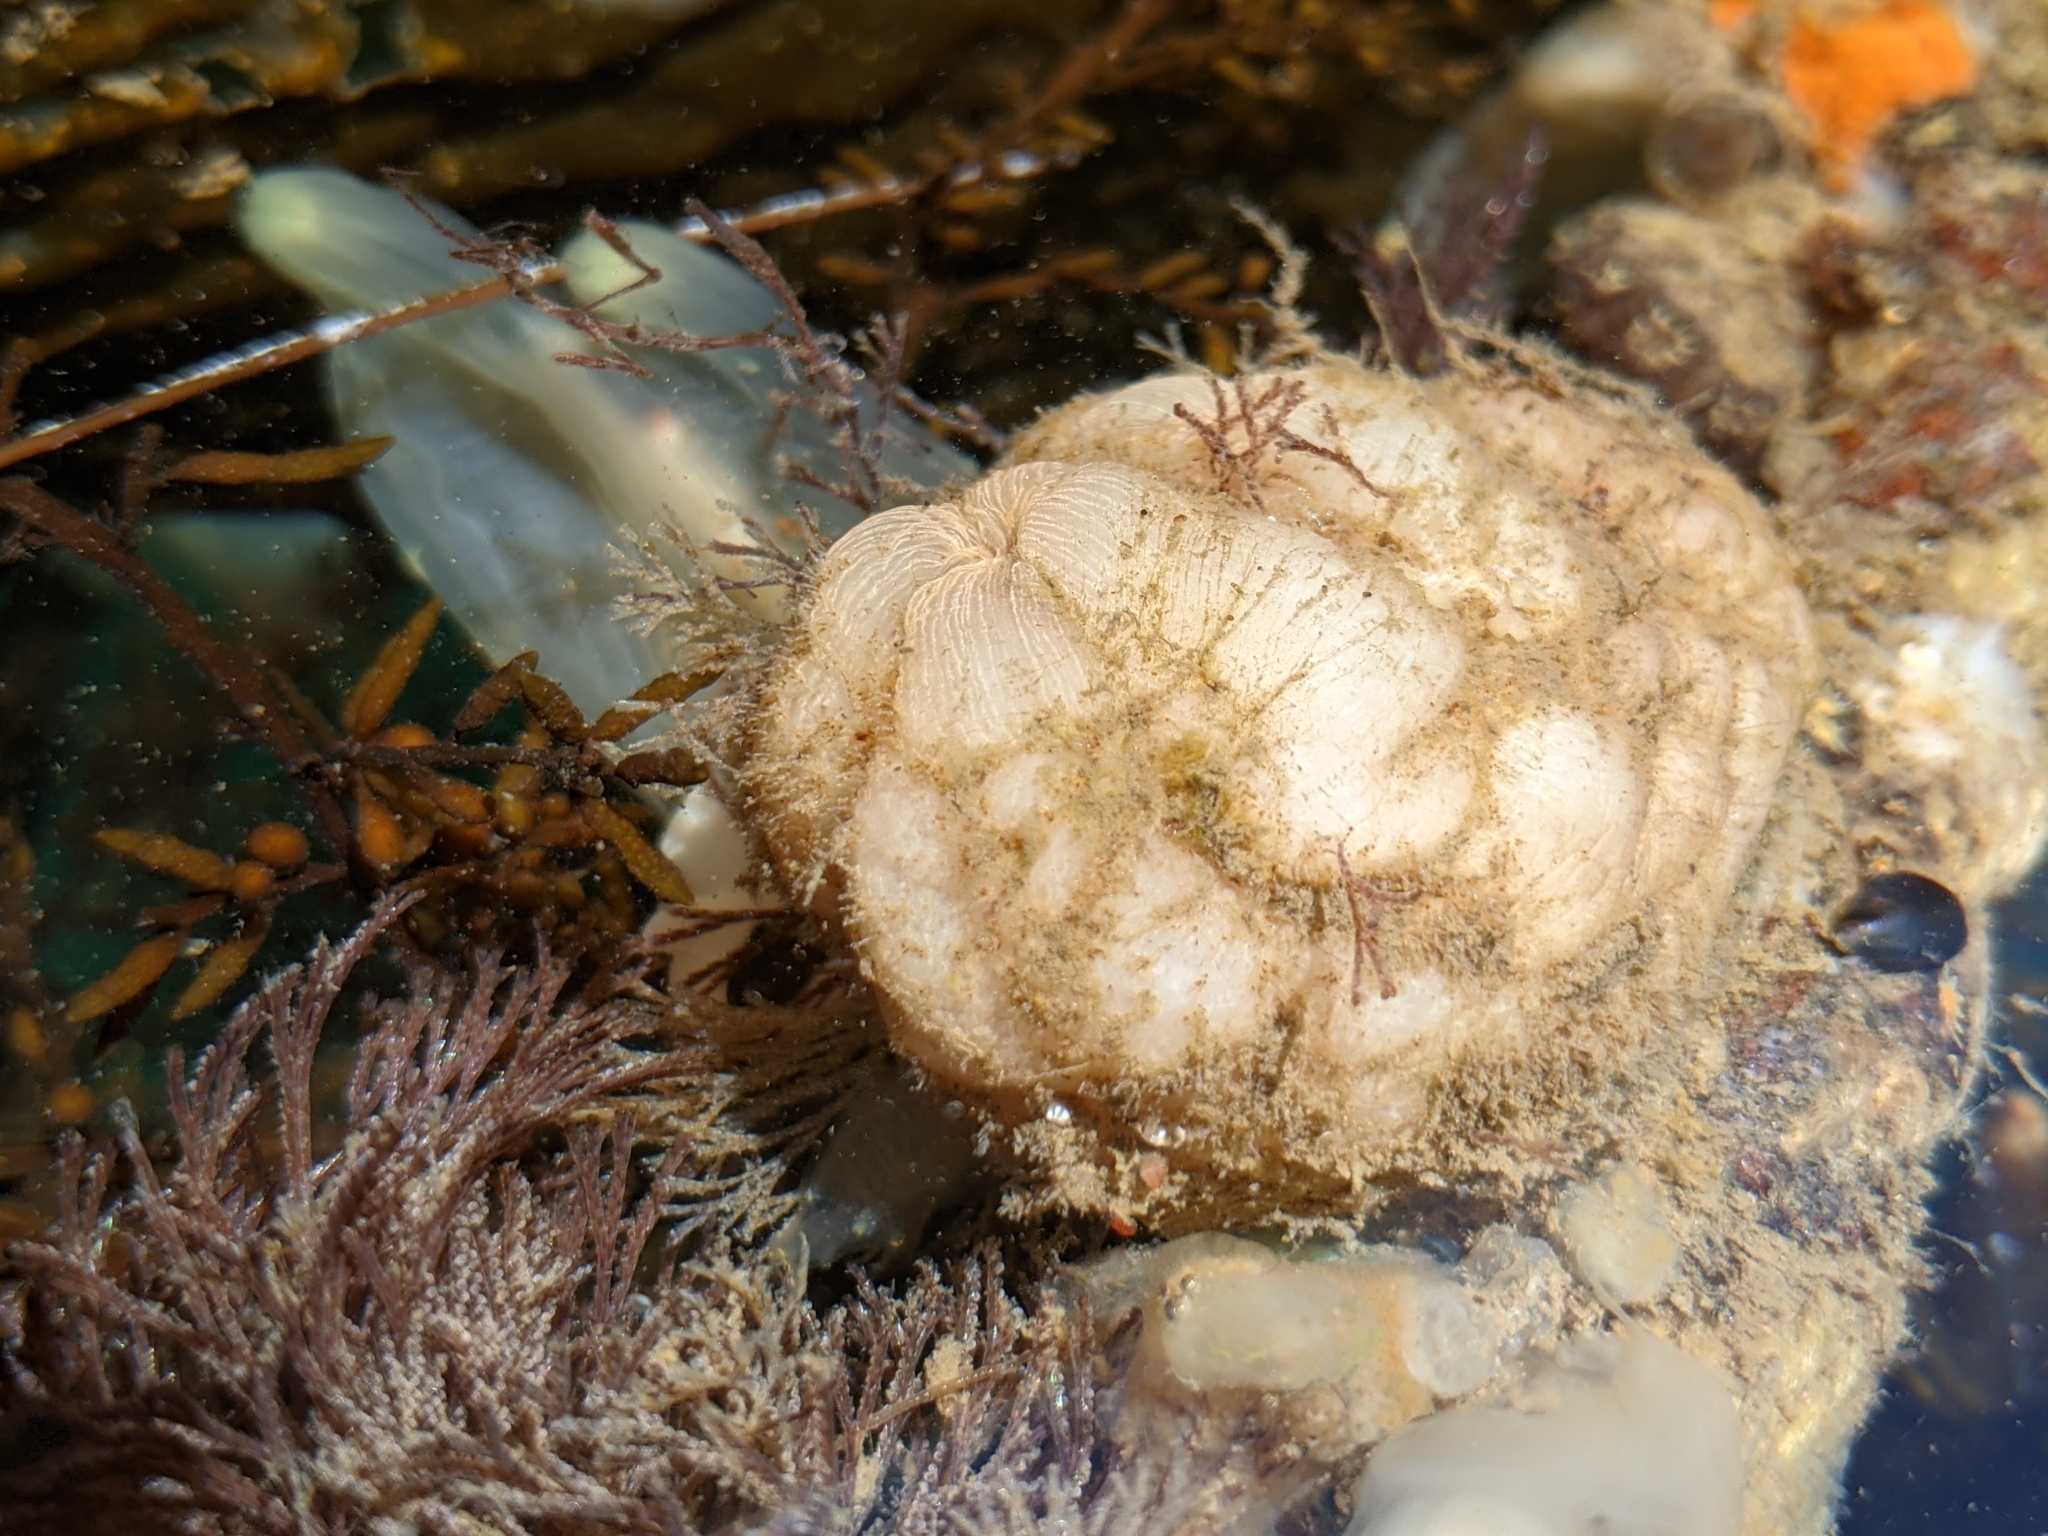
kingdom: Animalia
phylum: Chordata
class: Ascidiacea
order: Stolidobranchia
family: Styelidae
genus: Styela
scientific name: Styela plicata
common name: Pleated tunicate
